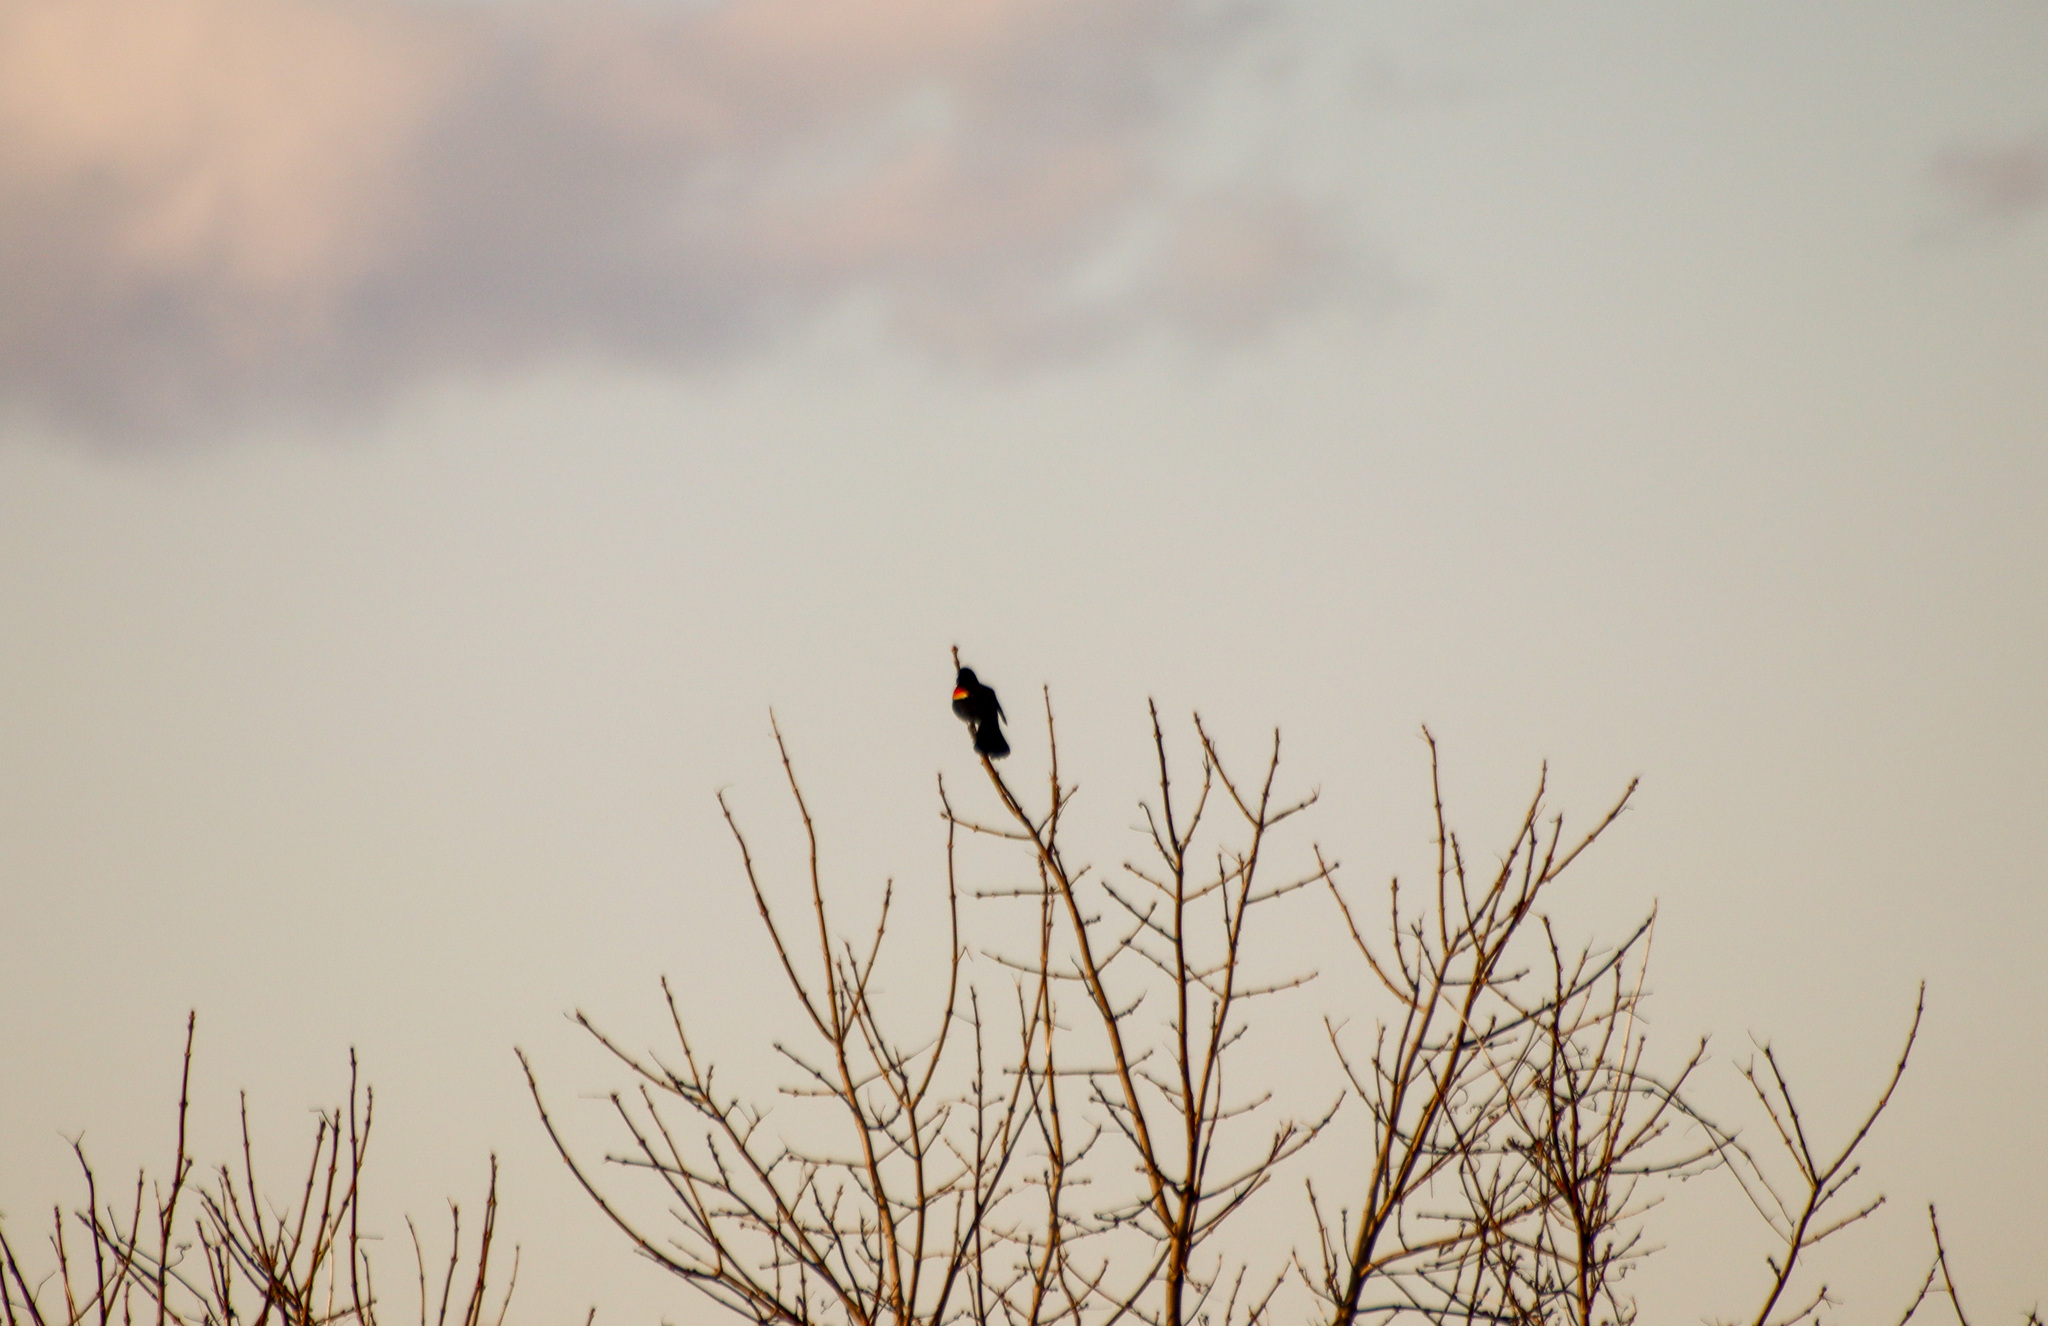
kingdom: Animalia
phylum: Chordata
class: Aves
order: Passeriformes
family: Icteridae
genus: Agelaius
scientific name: Agelaius phoeniceus
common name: Red-winged blackbird
